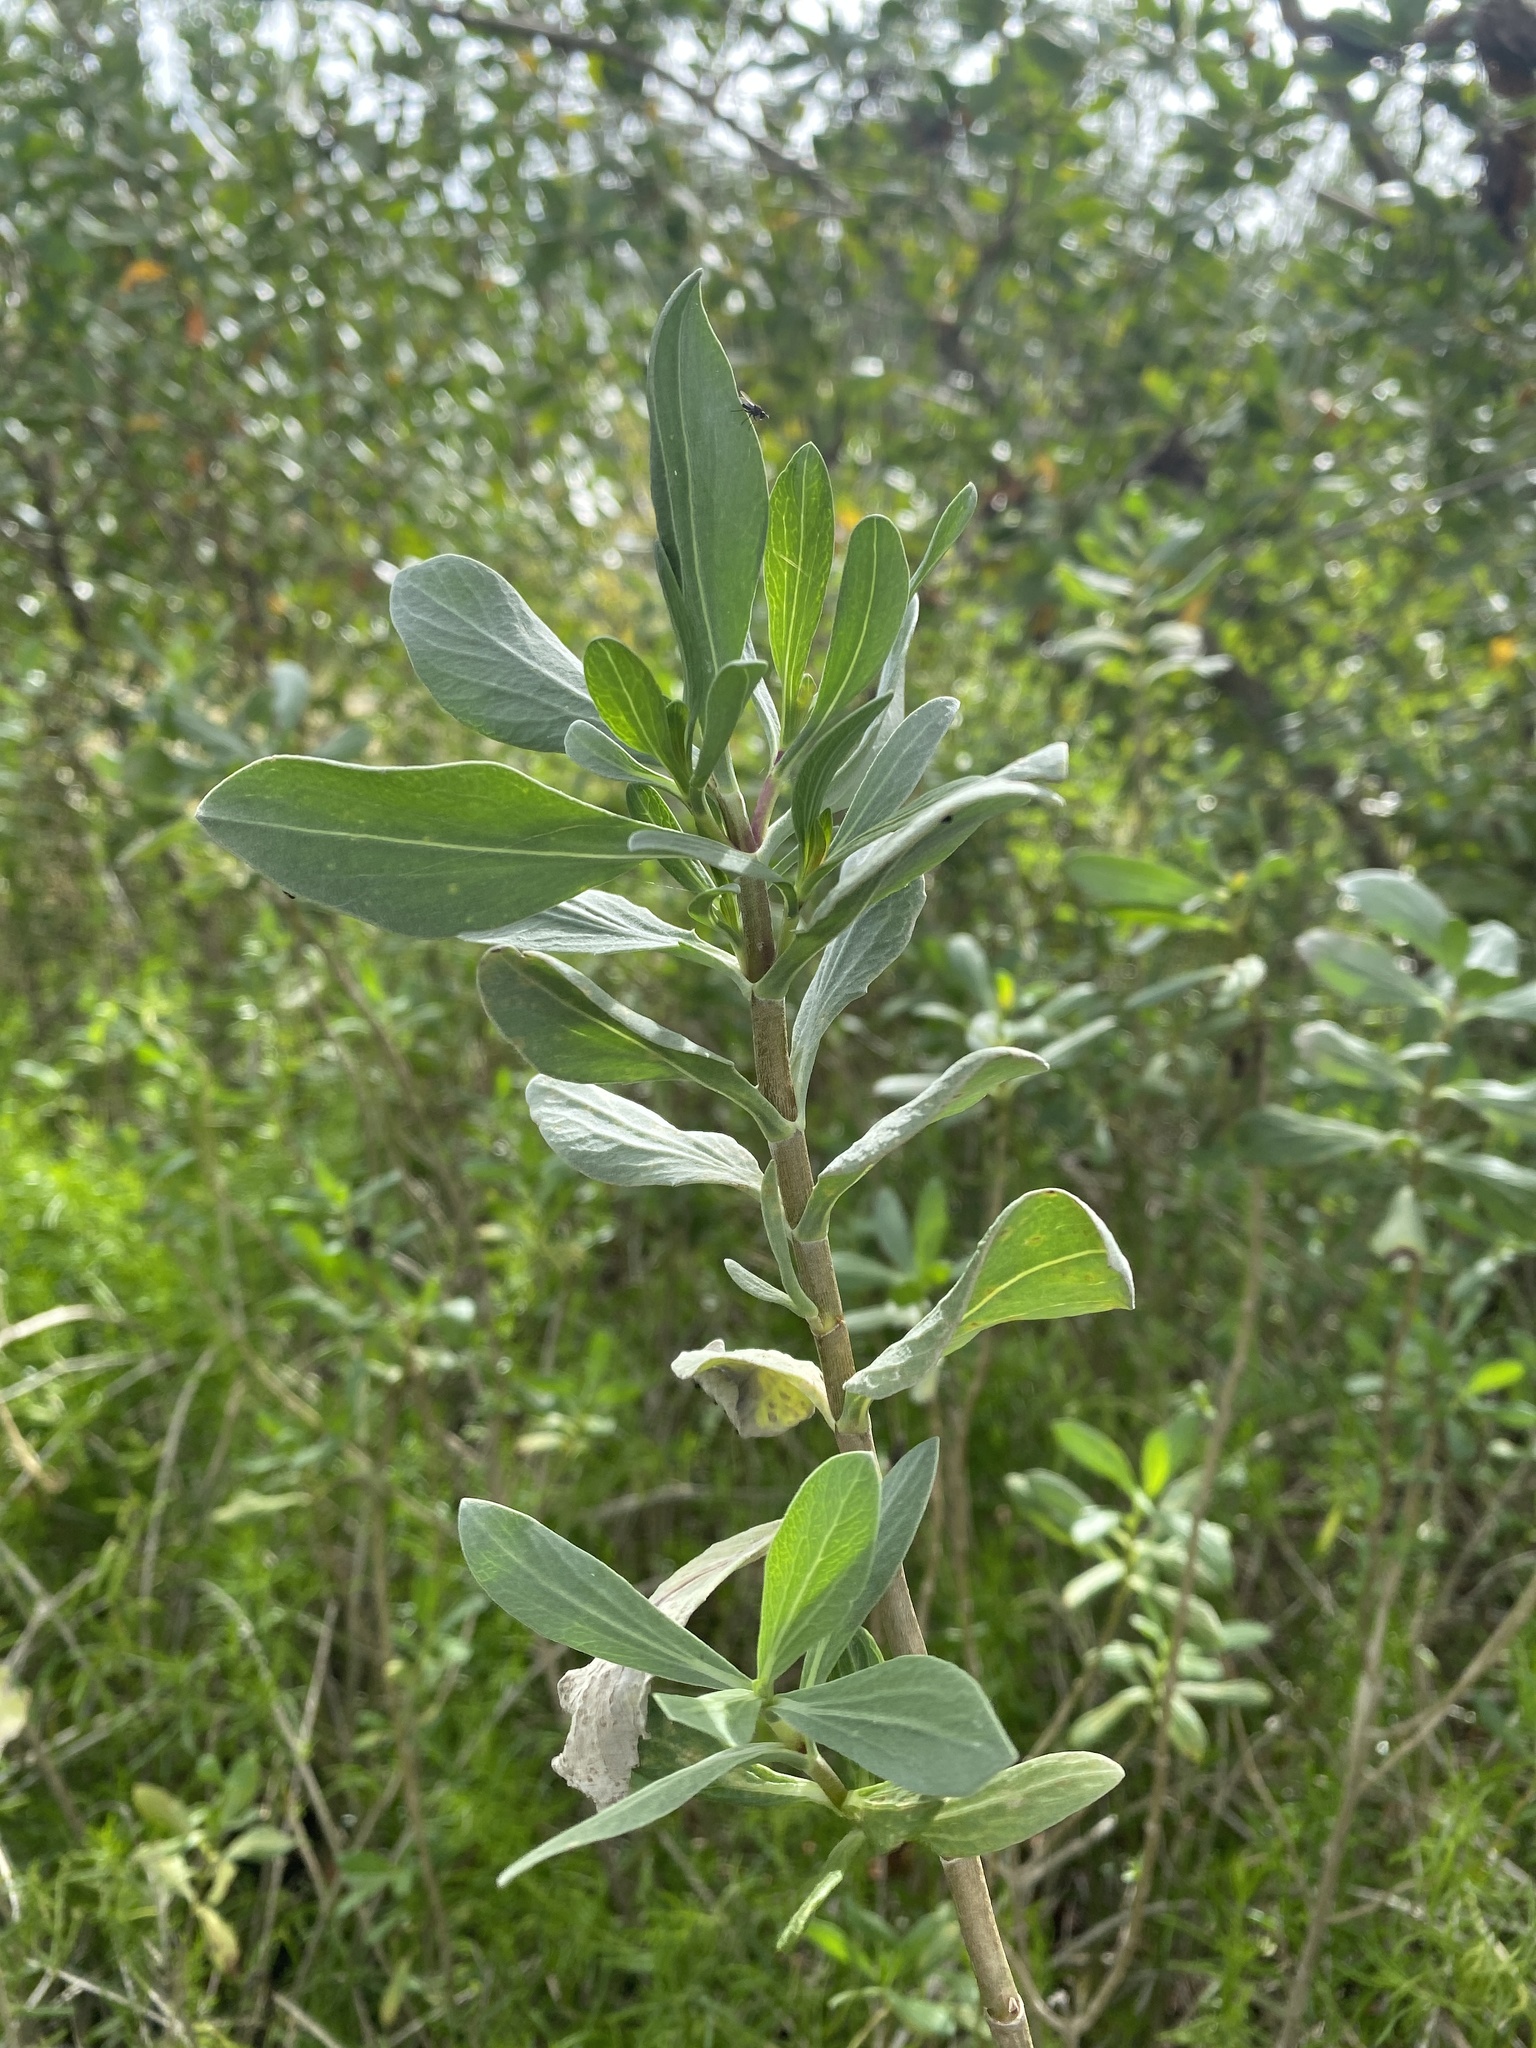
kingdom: Plantae
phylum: Tracheophyta
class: Magnoliopsida
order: Asterales
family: Asteraceae
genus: Borrichia
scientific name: Borrichia frutescens
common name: Sea oxeye
